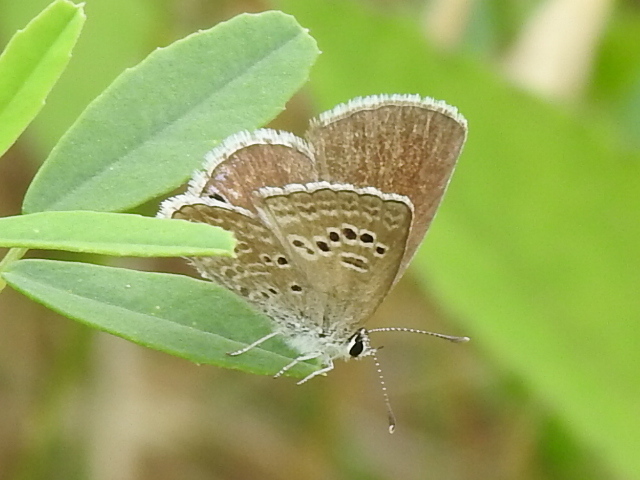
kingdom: Animalia
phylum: Arthropoda
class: Insecta
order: Lepidoptera
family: Lycaenidae
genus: Echinargus
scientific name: Echinargus isola
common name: Reakirt's blue
